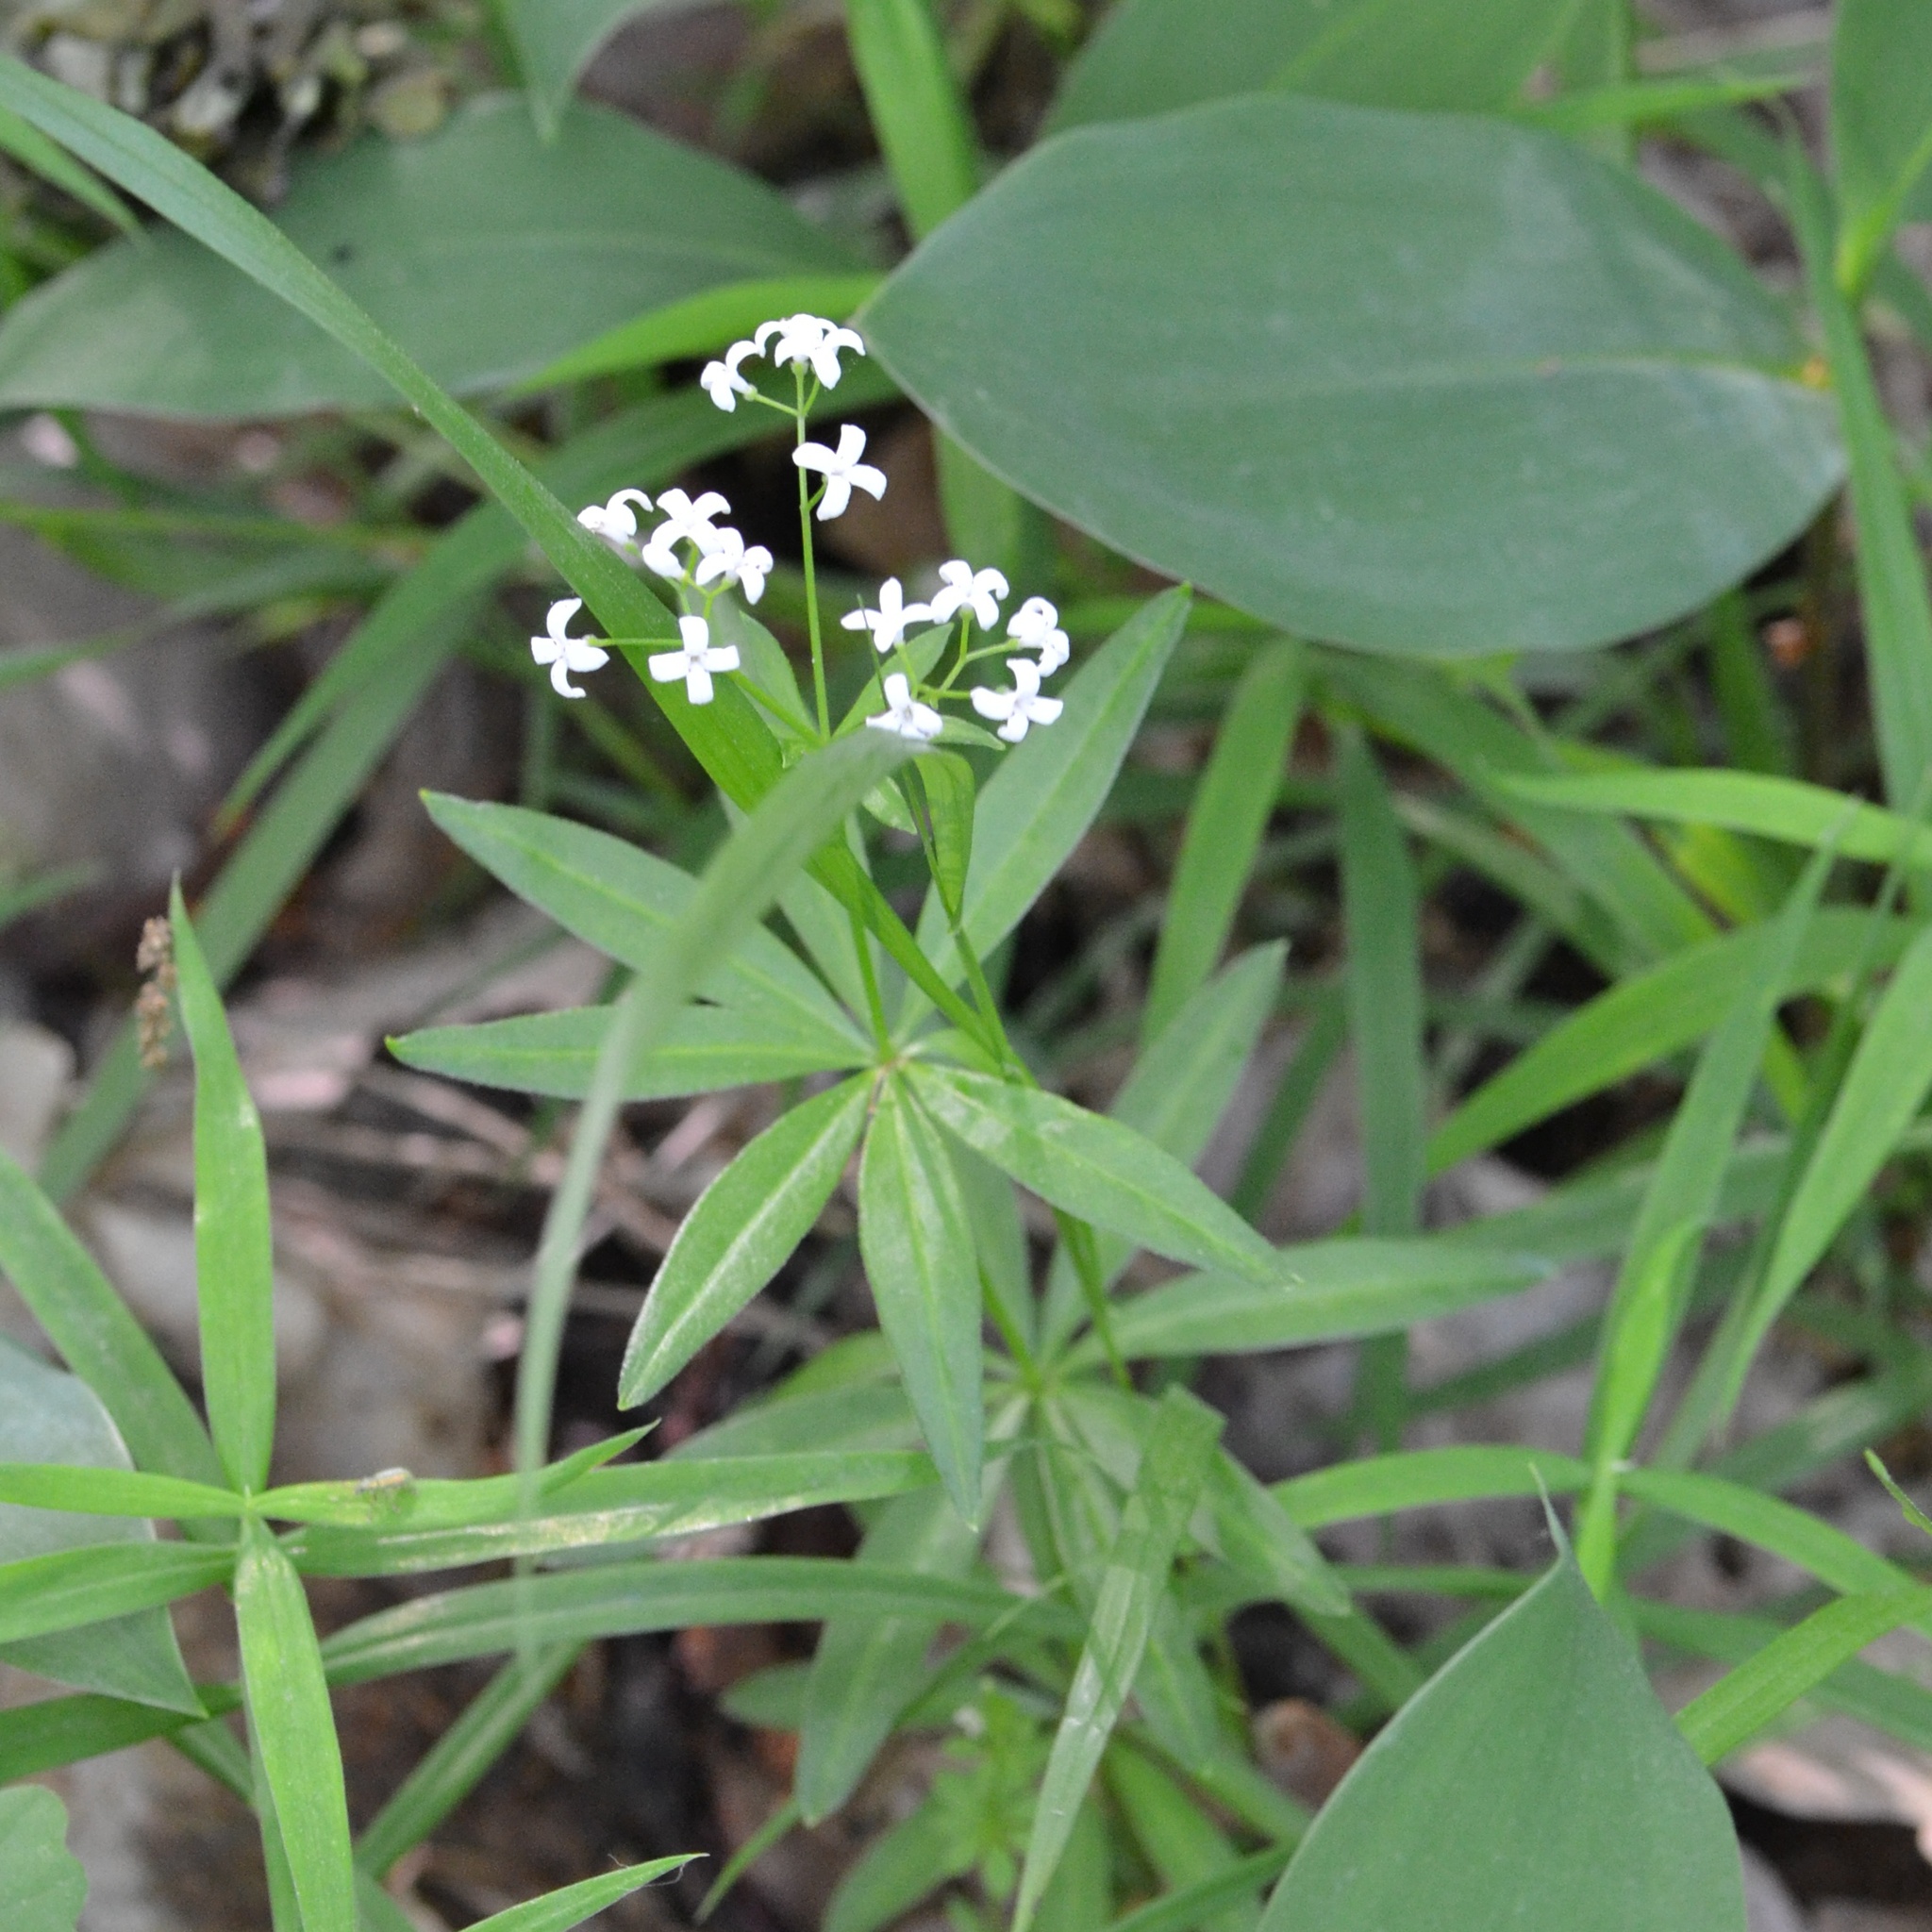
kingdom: Plantae
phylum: Tracheophyta
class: Magnoliopsida
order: Gentianales
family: Rubiaceae
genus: Galium
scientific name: Galium odoratum
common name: Sweet woodruff
